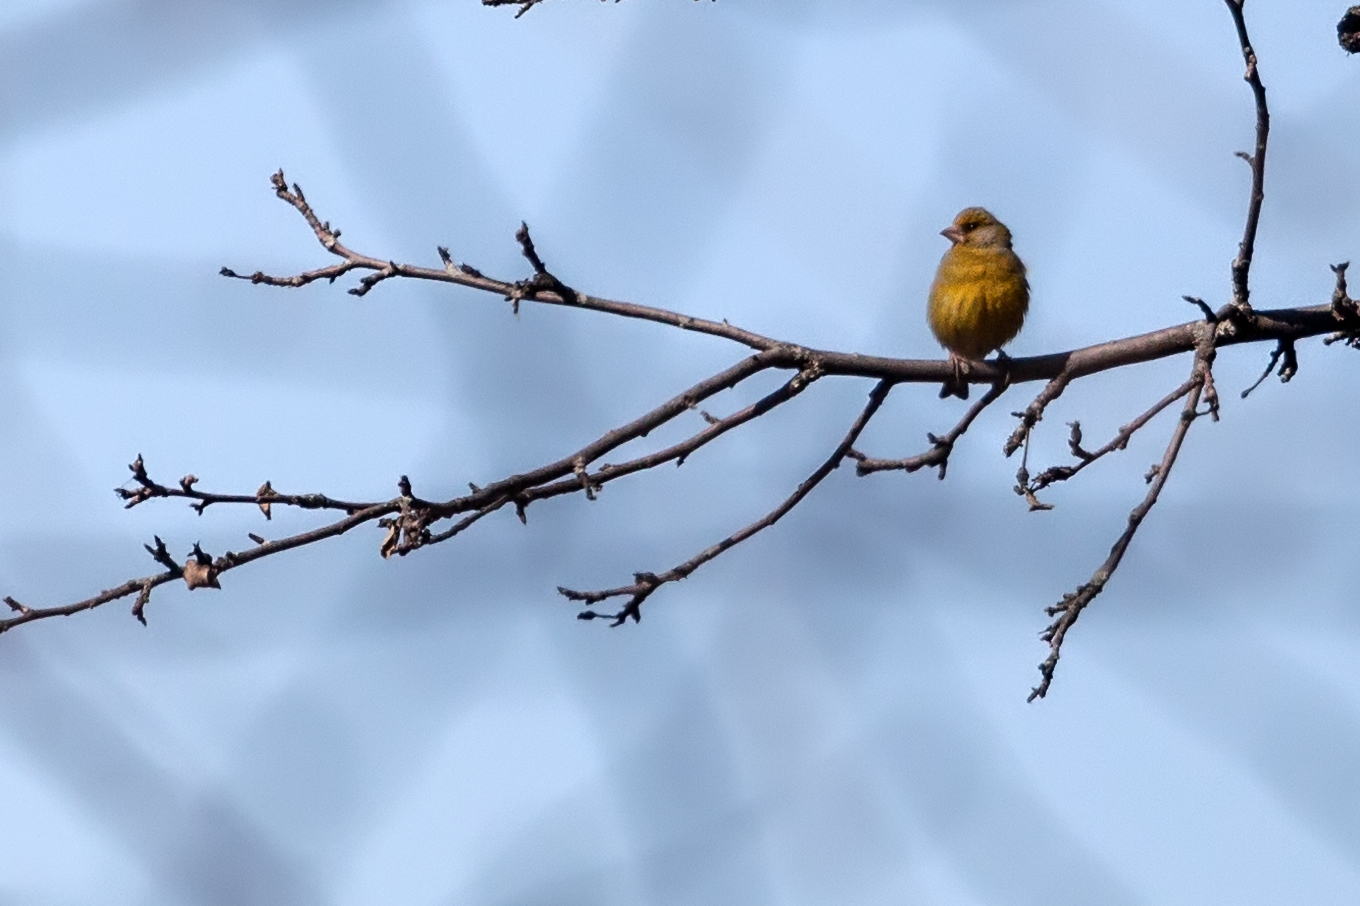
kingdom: Plantae
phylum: Tracheophyta
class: Liliopsida
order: Poales
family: Poaceae
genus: Chloris
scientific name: Chloris chloris
